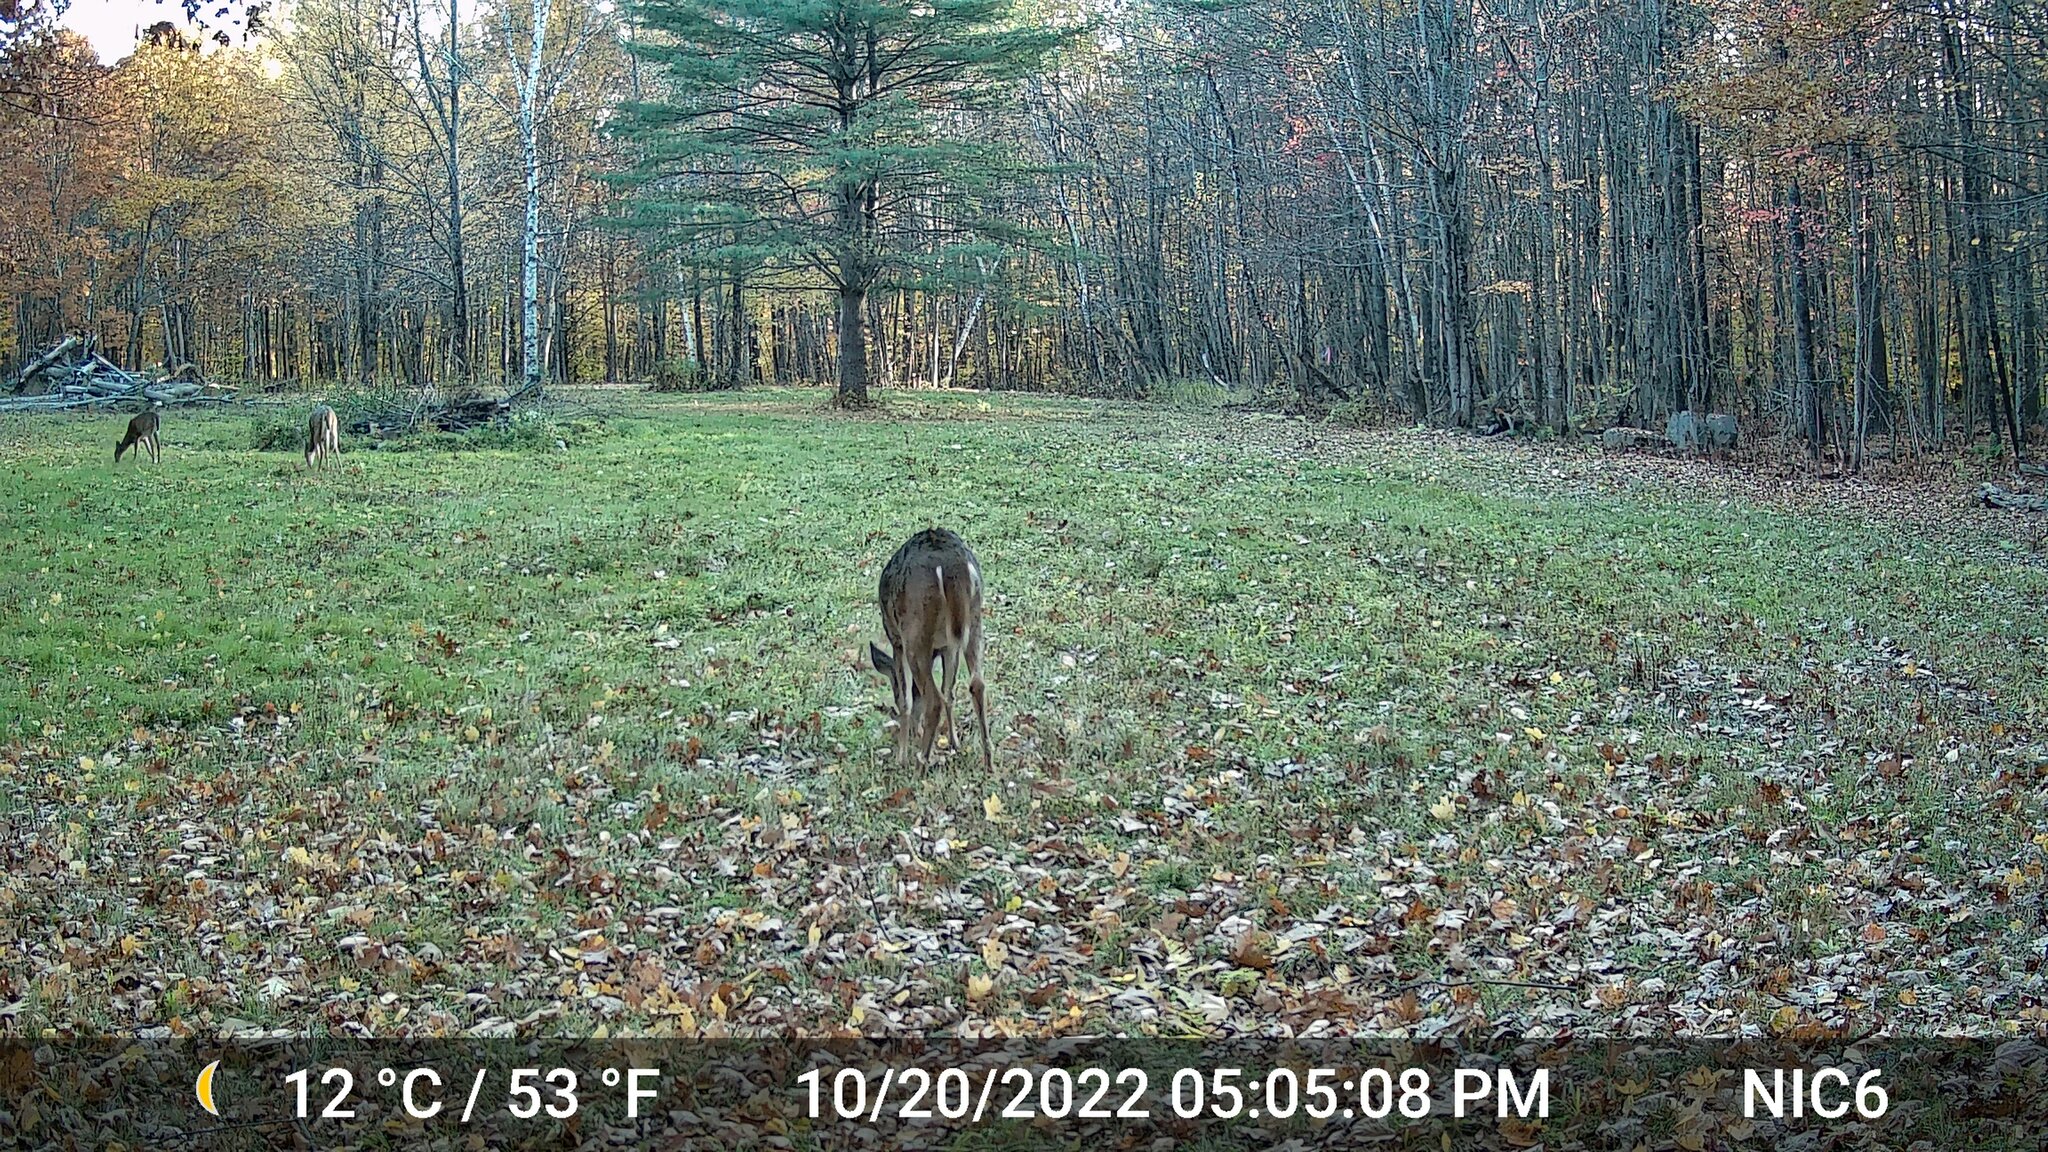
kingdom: Animalia
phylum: Chordata
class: Mammalia
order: Artiodactyla
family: Cervidae
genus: Odocoileus
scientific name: Odocoileus virginianus
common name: White-tailed deer
